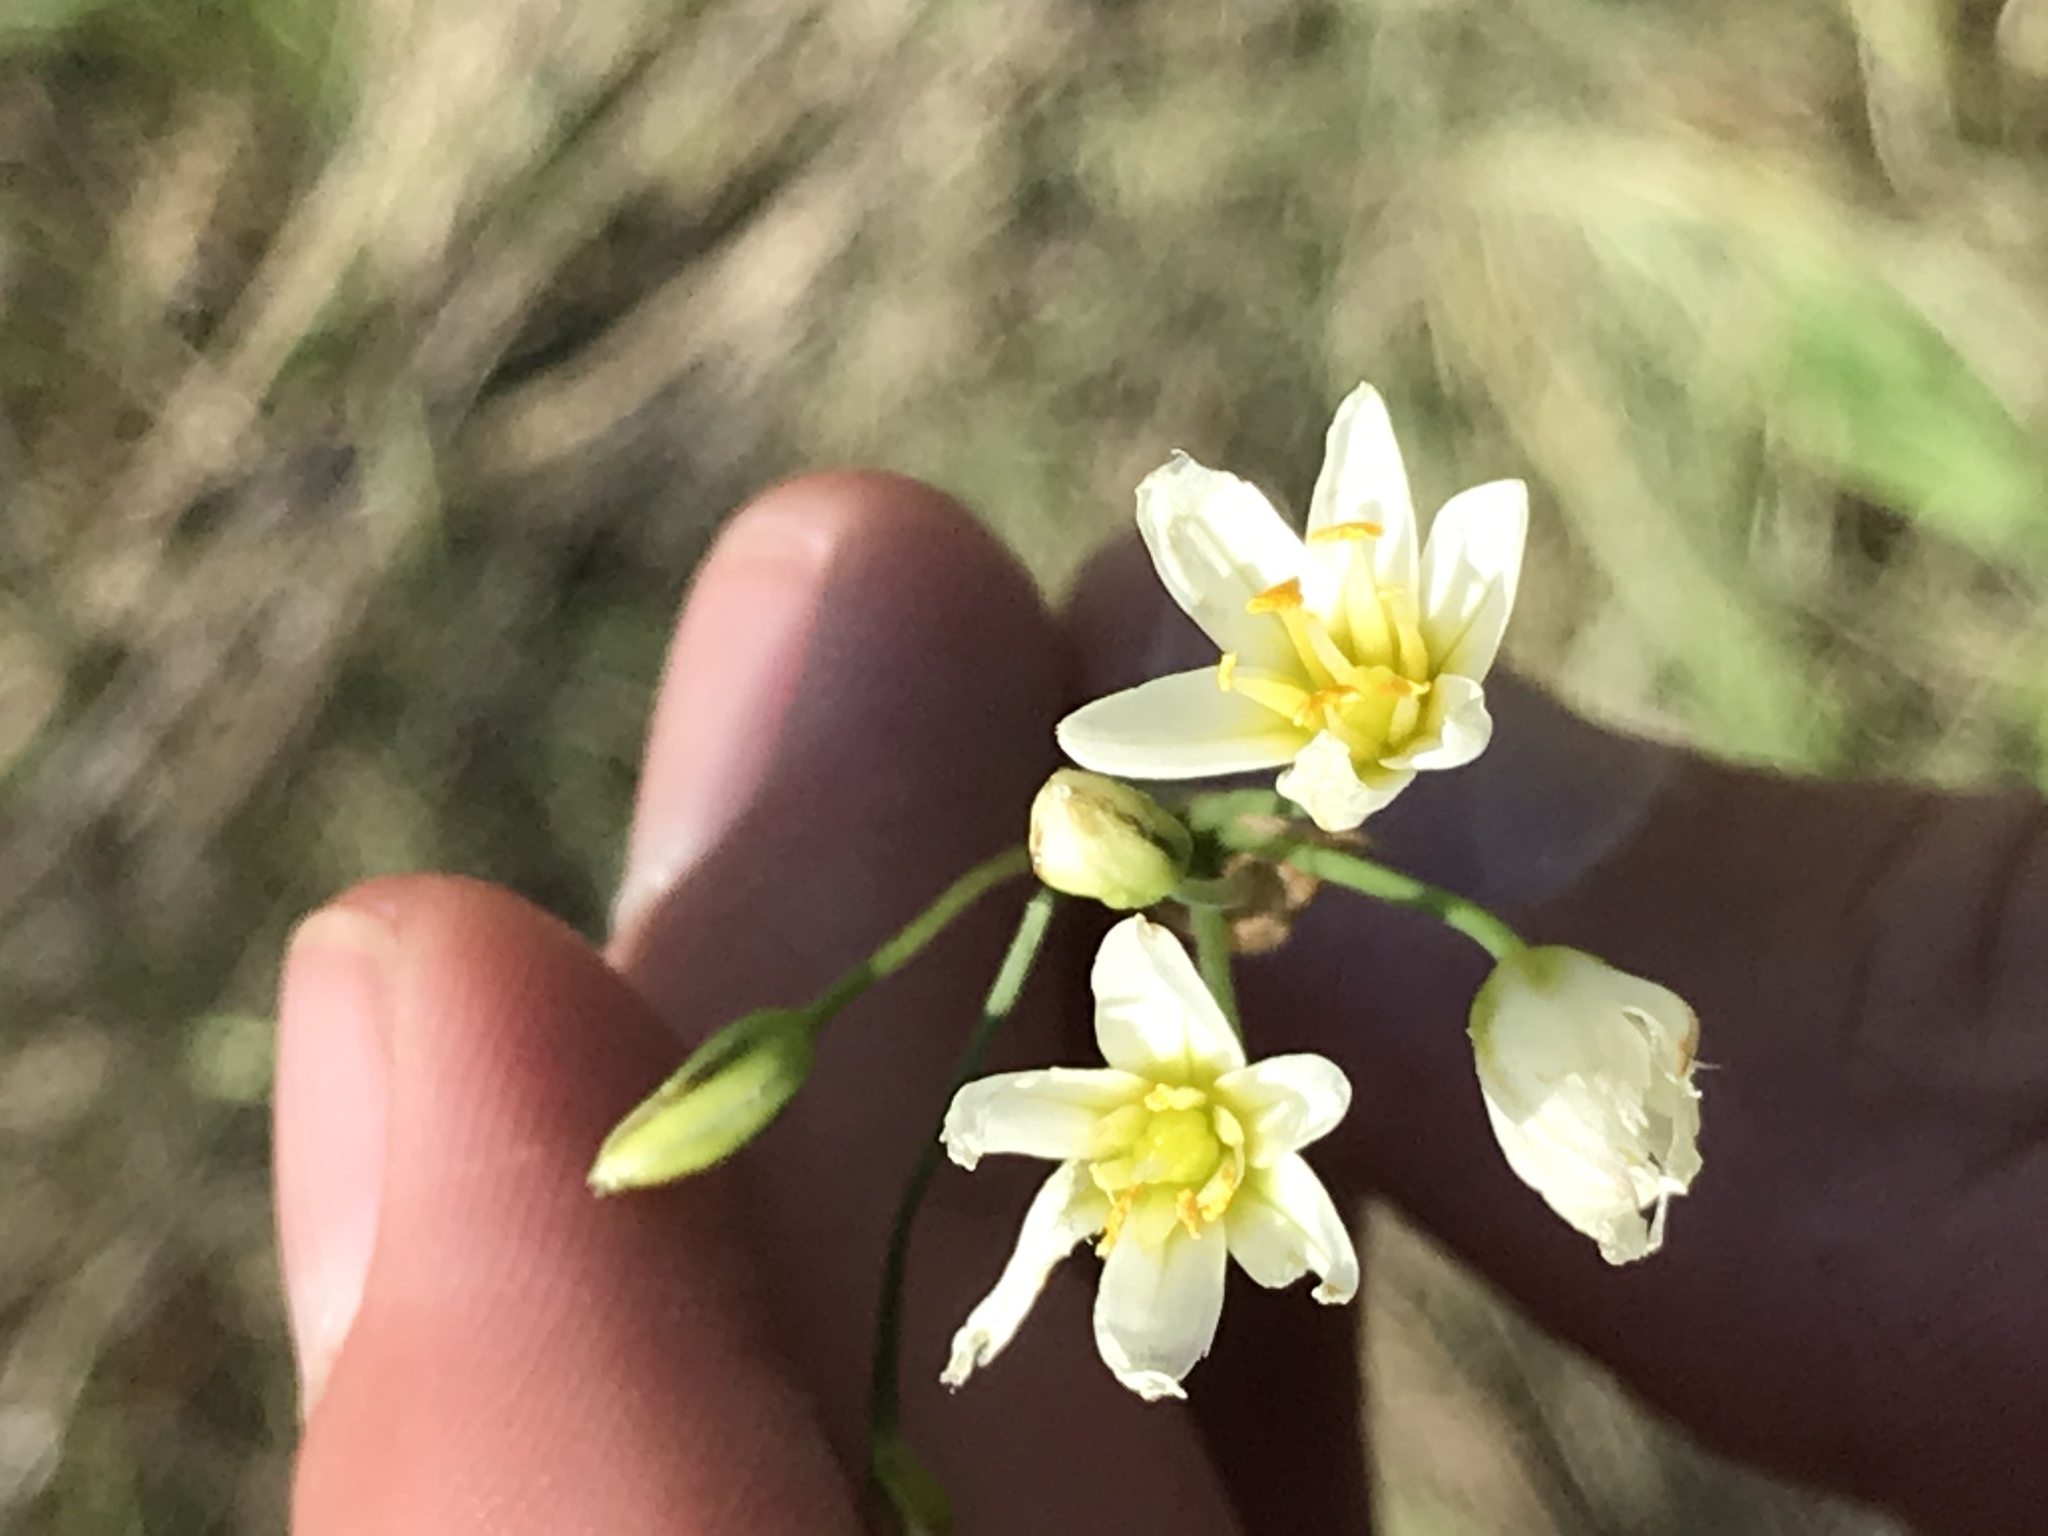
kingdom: Plantae
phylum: Tracheophyta
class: Liliopsida
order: Asparagales
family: Amaryllidaceae
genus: Nothoscordum
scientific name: Nothoscordum bivalve
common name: Crow-poison
